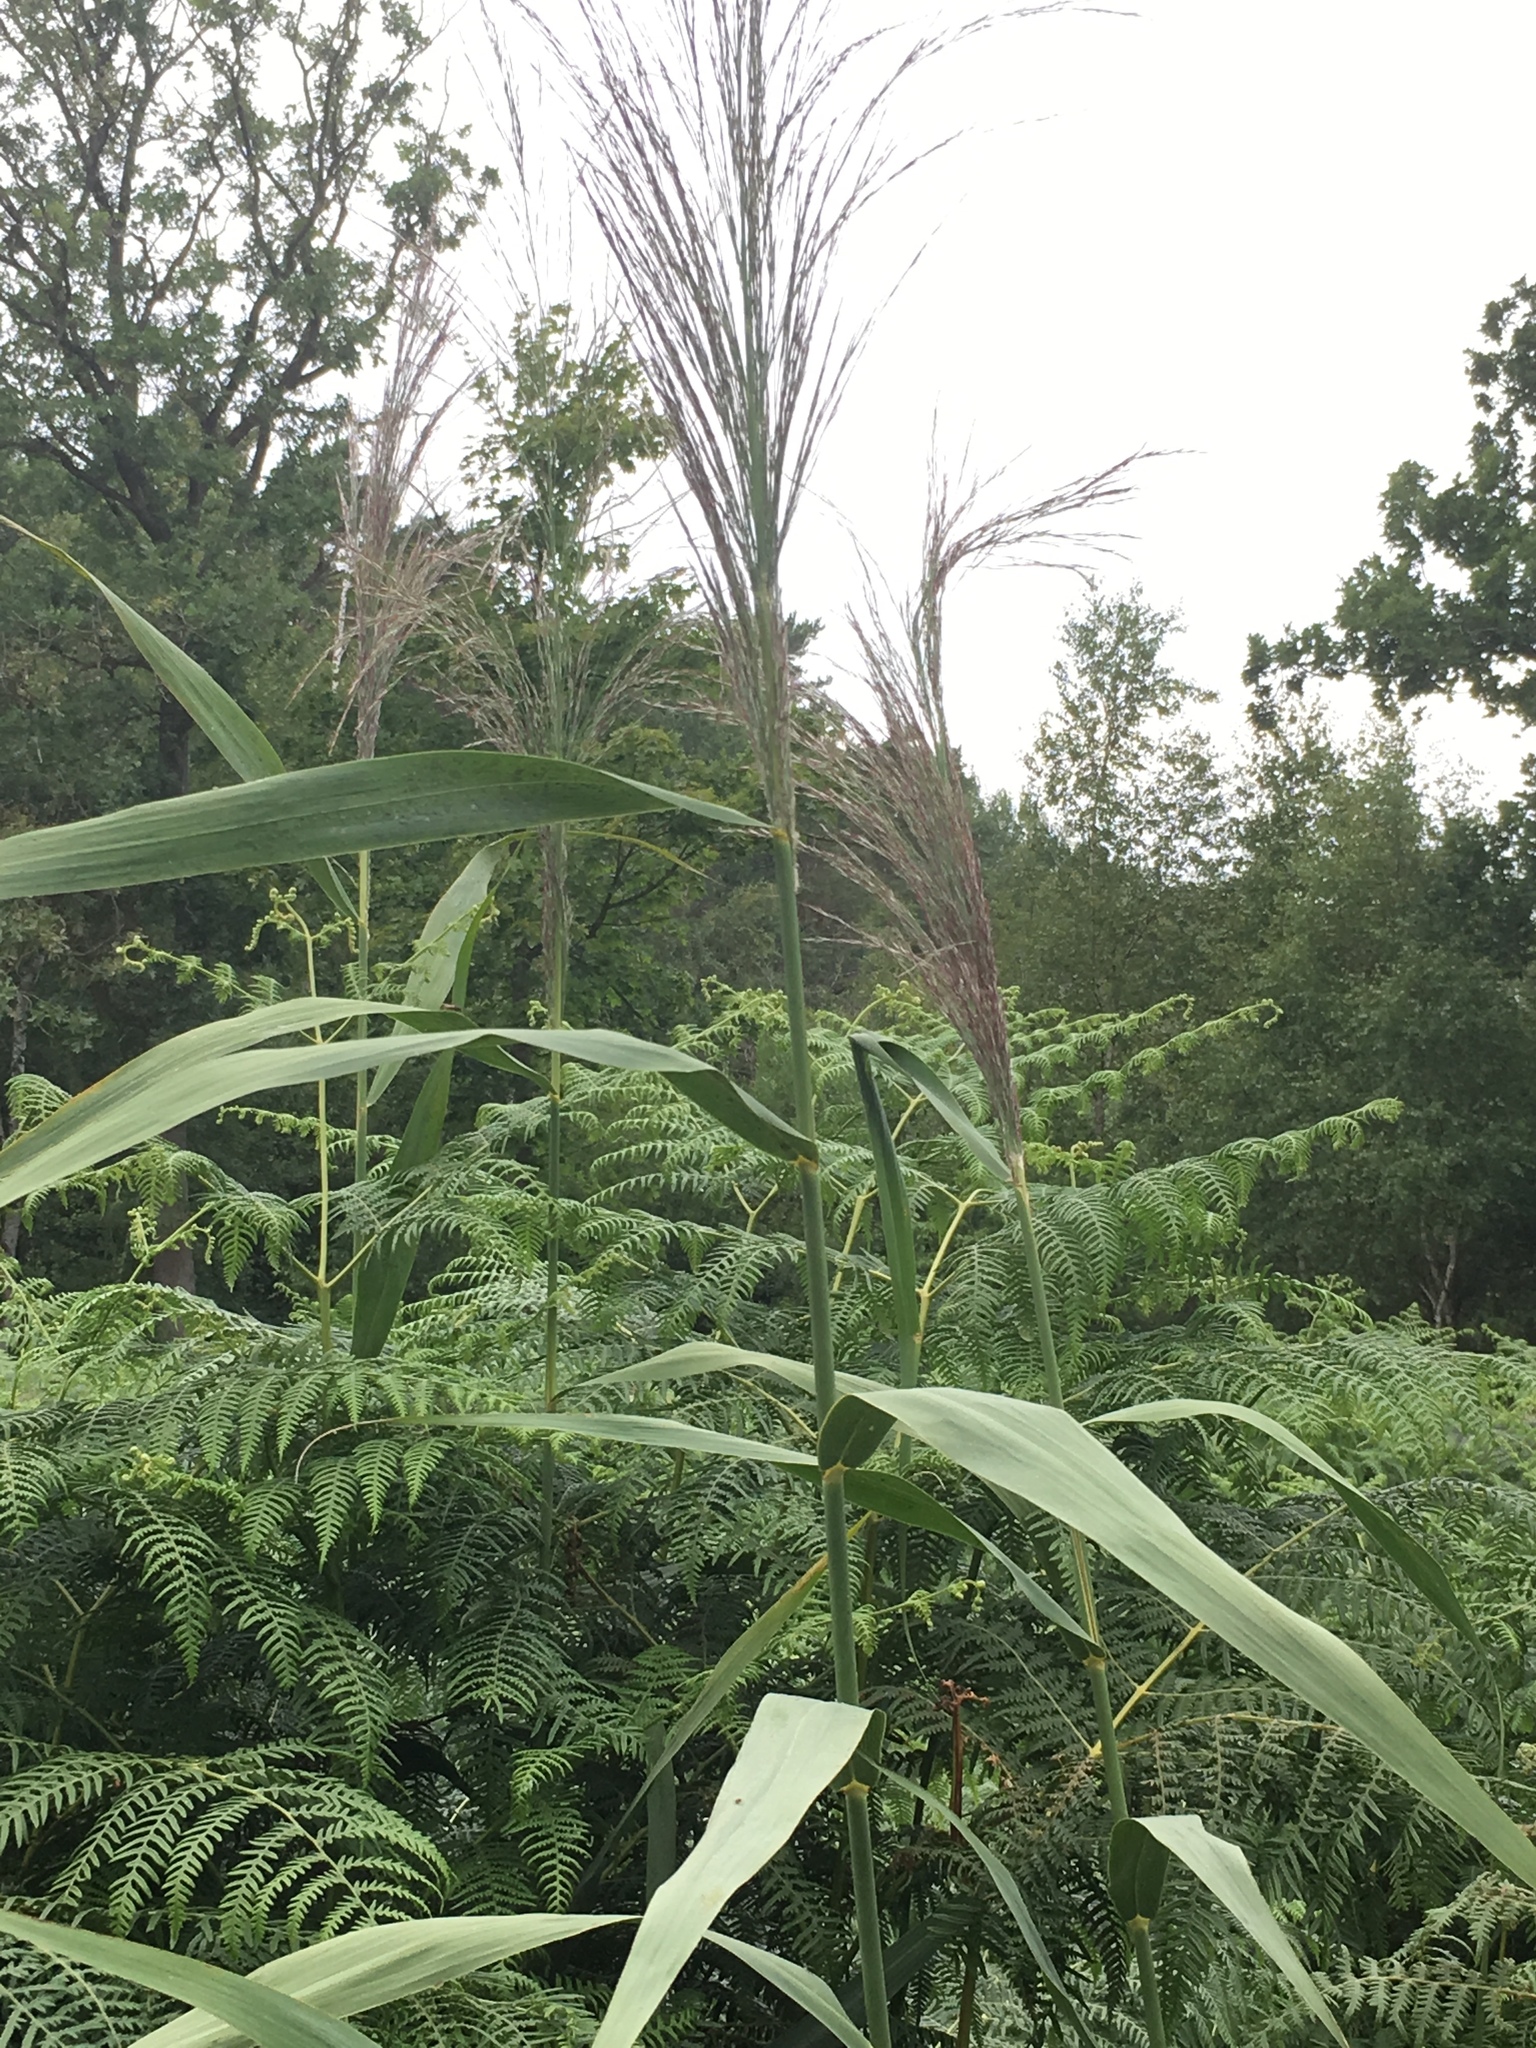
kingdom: Plantae
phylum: Tracheophyta
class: Liliopsida
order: Poales
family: Poaceae
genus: Phragmites
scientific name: Phragmites australis
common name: Common reed
